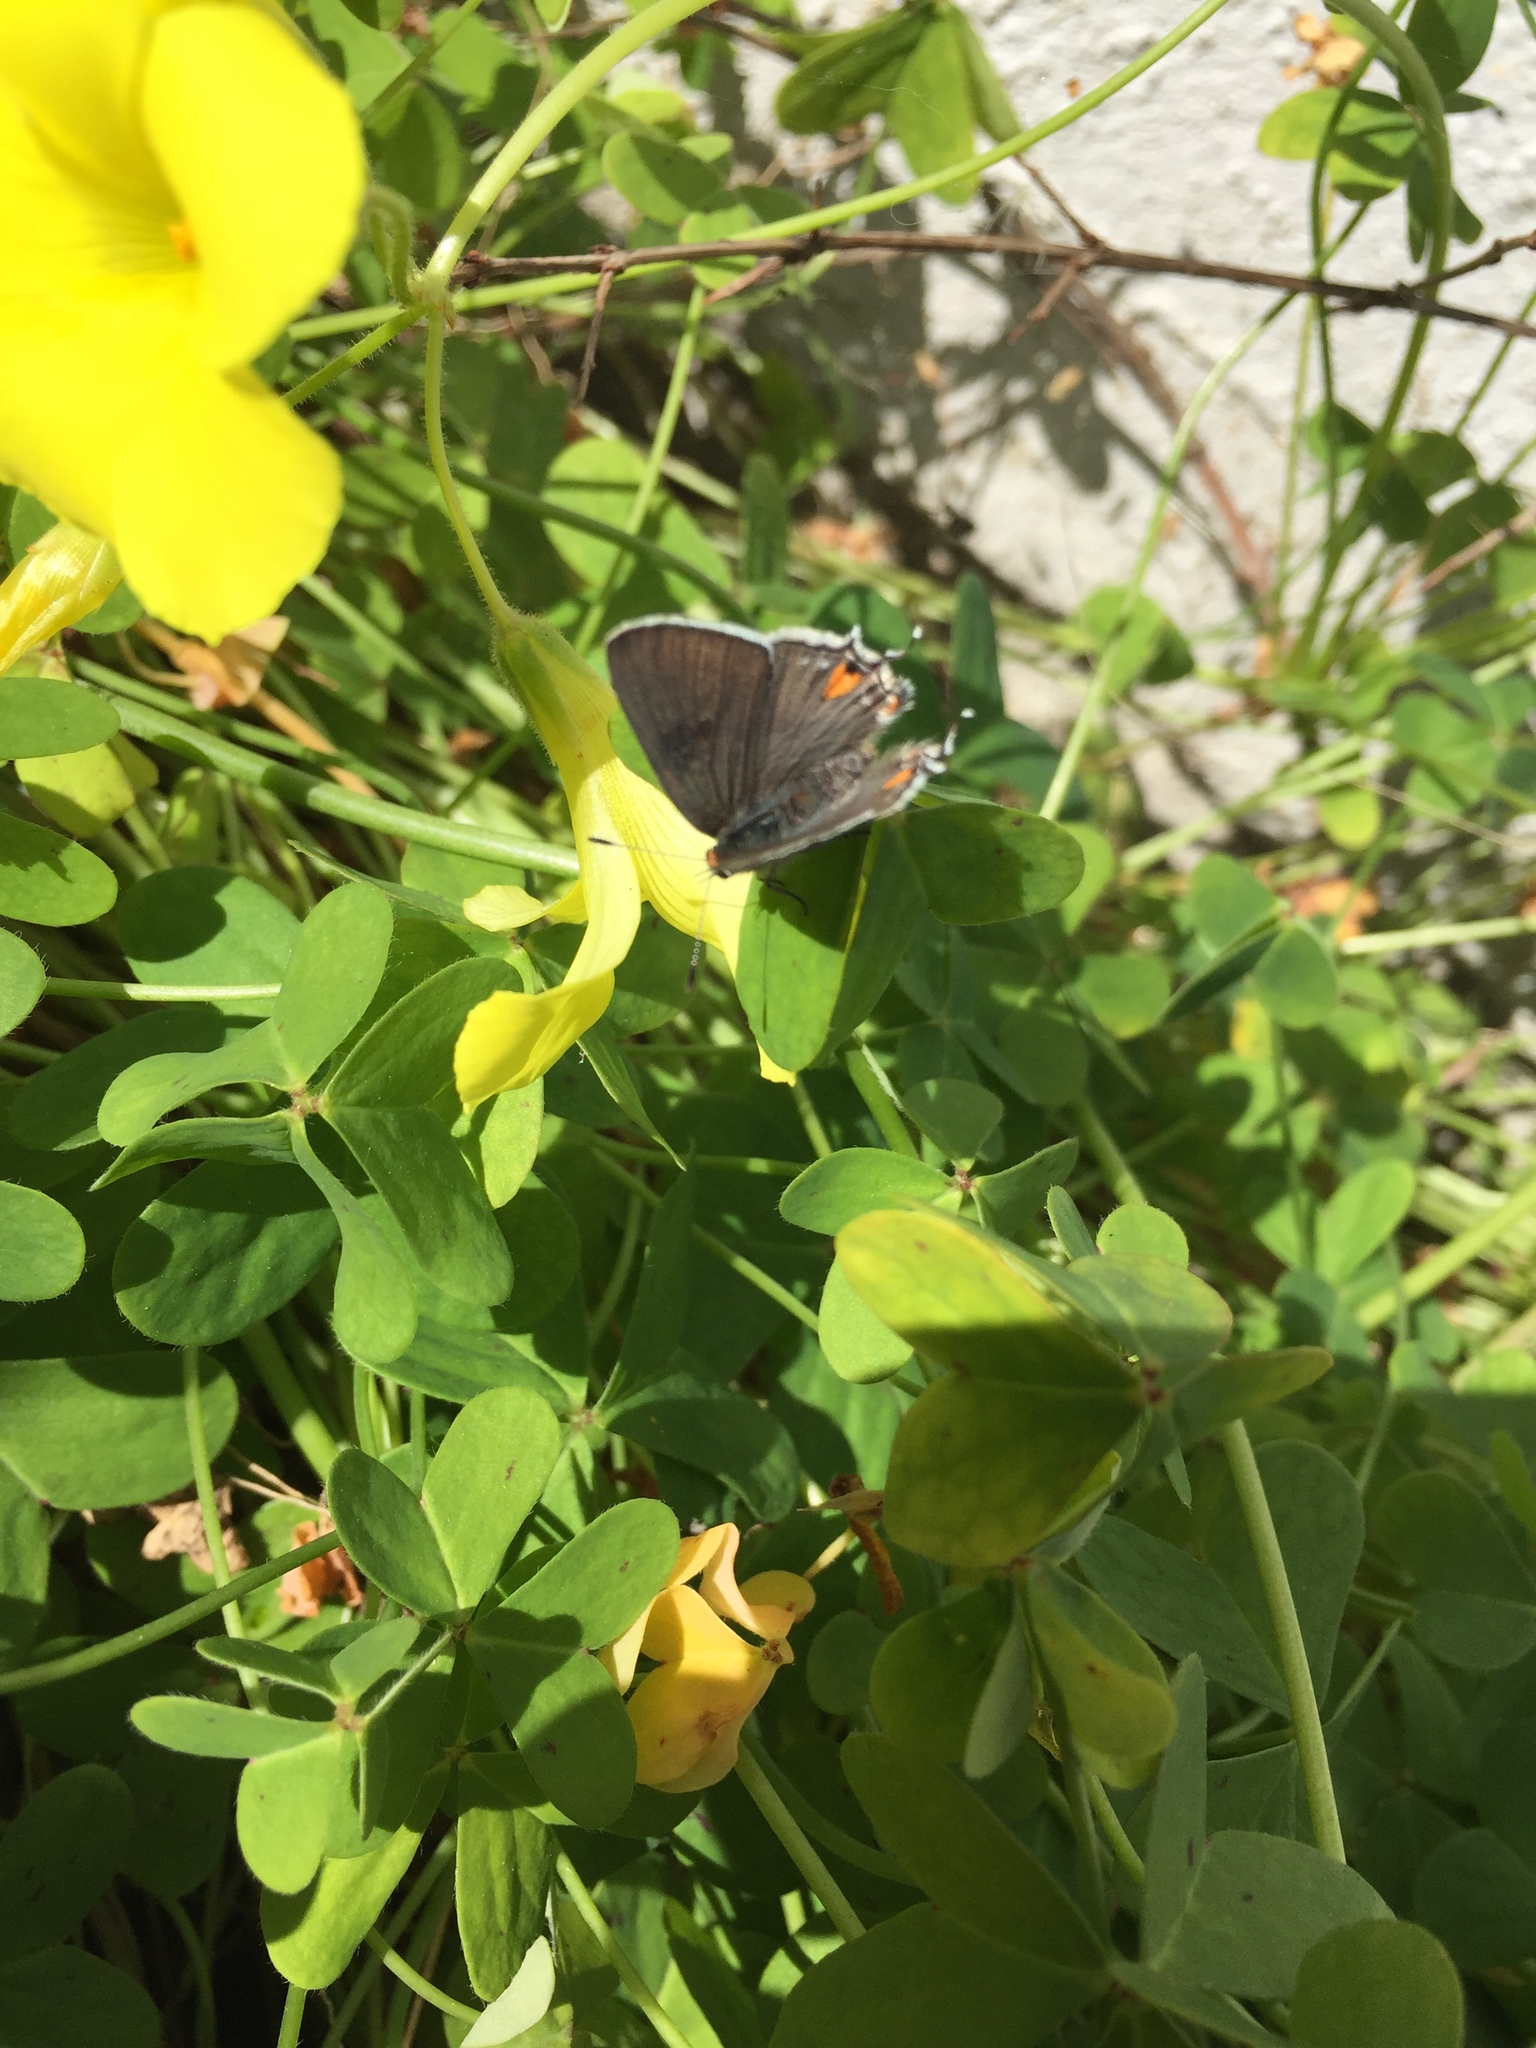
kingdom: Animalia
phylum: Arthropoda
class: Insecta
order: Lepidoptera
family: Lycaenidae
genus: Strymon
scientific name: Strymon melinus
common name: Gray hairstreak
